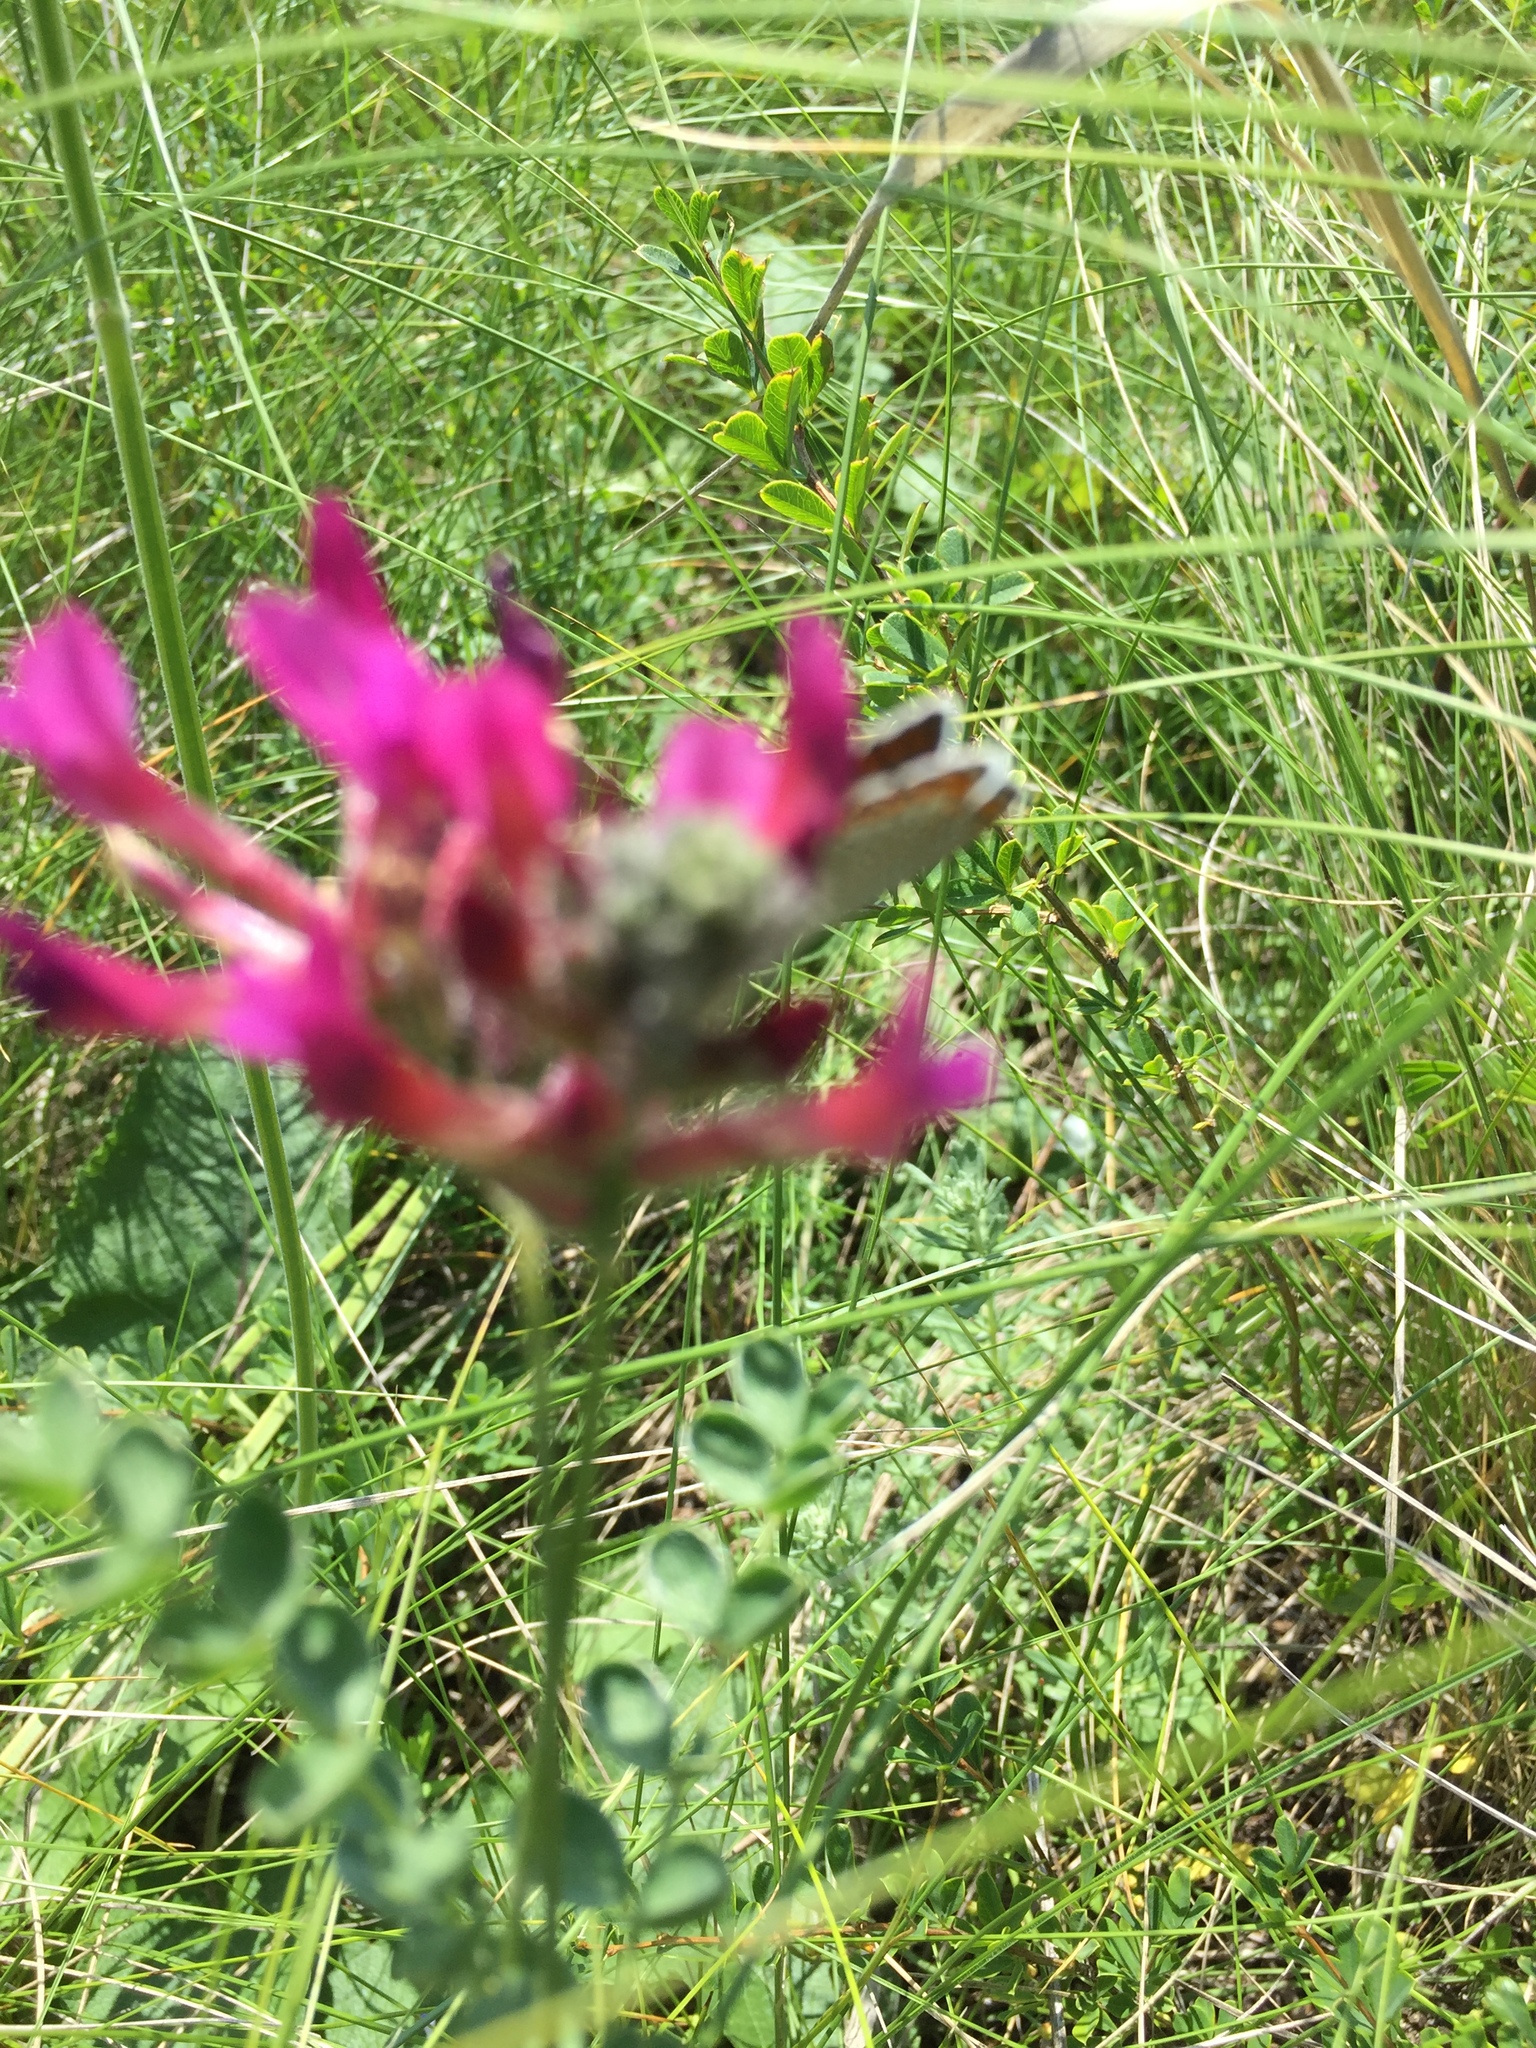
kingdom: Plantae
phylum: Tracheophyta
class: Magnoliopsida
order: Fabales
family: Fabaceae
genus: Astragalus
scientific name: Astragalus cornutus
